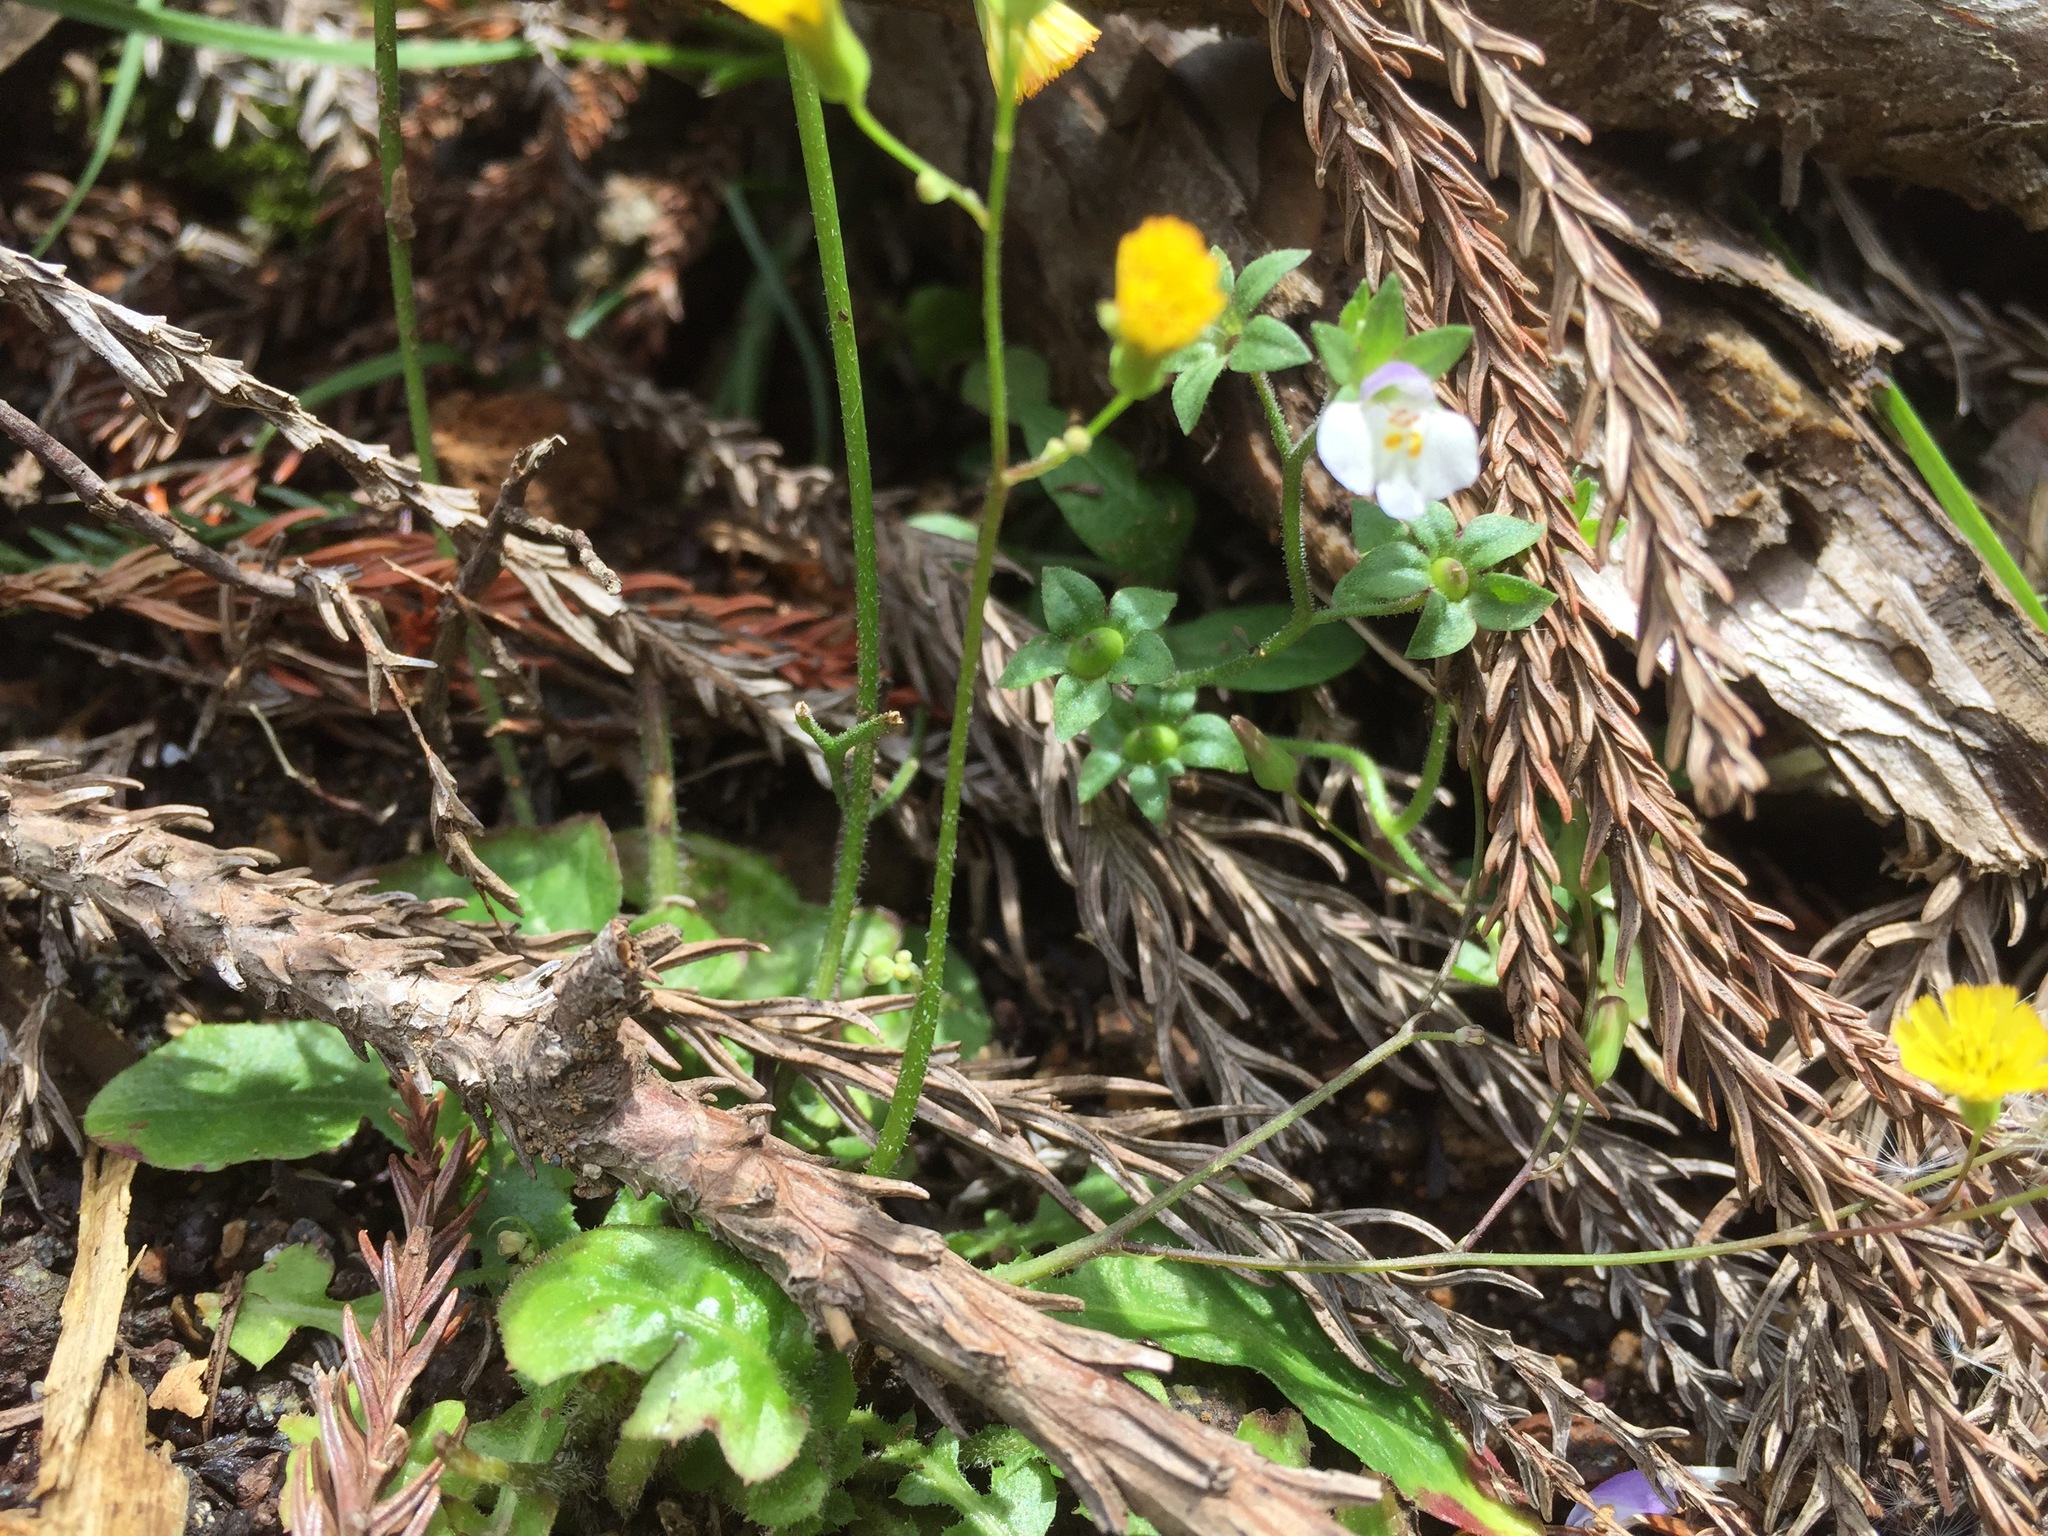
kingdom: Plantae
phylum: Tracheophyta
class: Magnoliopsida
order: Lamiales
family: Mazaceae
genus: Mazus
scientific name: Mazus pumilus
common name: Japanese mazus
